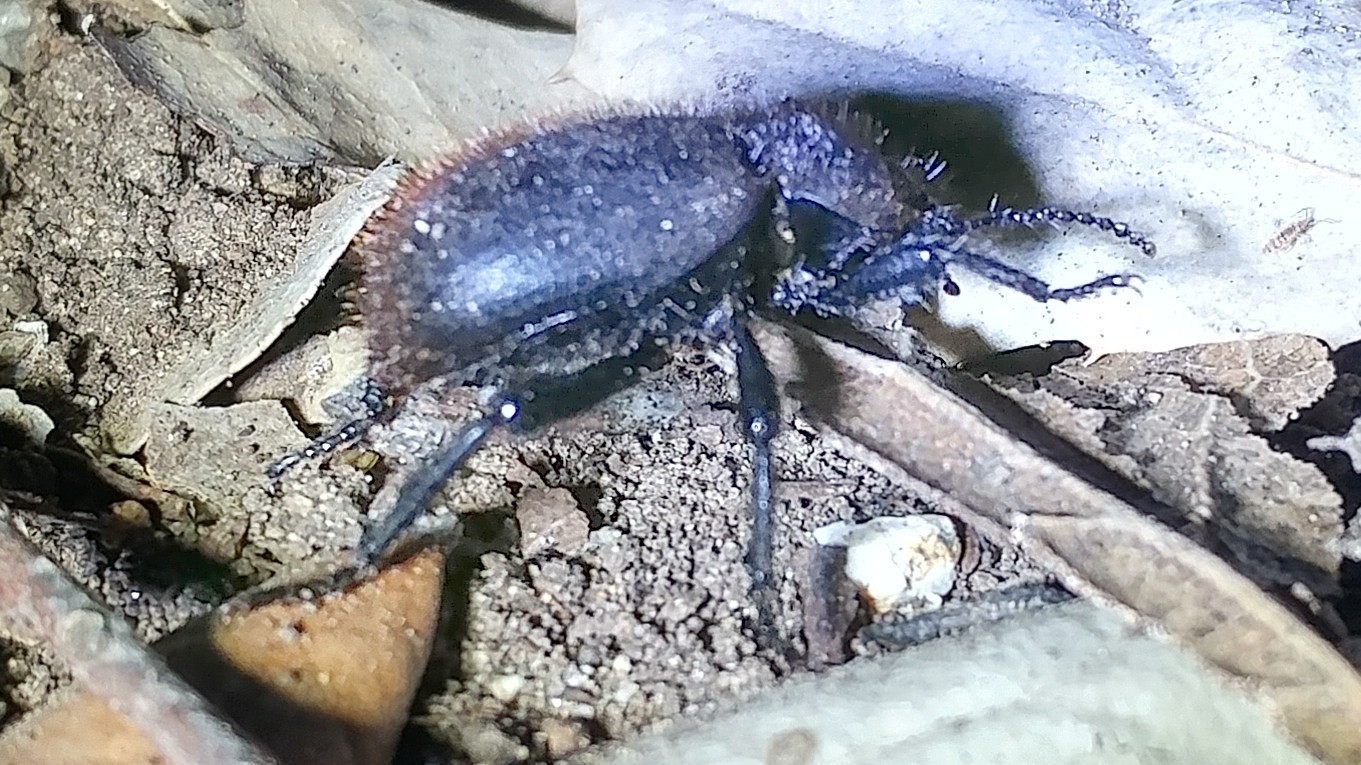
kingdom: Animalia
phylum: Arthropoda
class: Insecta
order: Coleoptera
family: Tenebrionidae
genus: Eleodes
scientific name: Eleodes osculans
